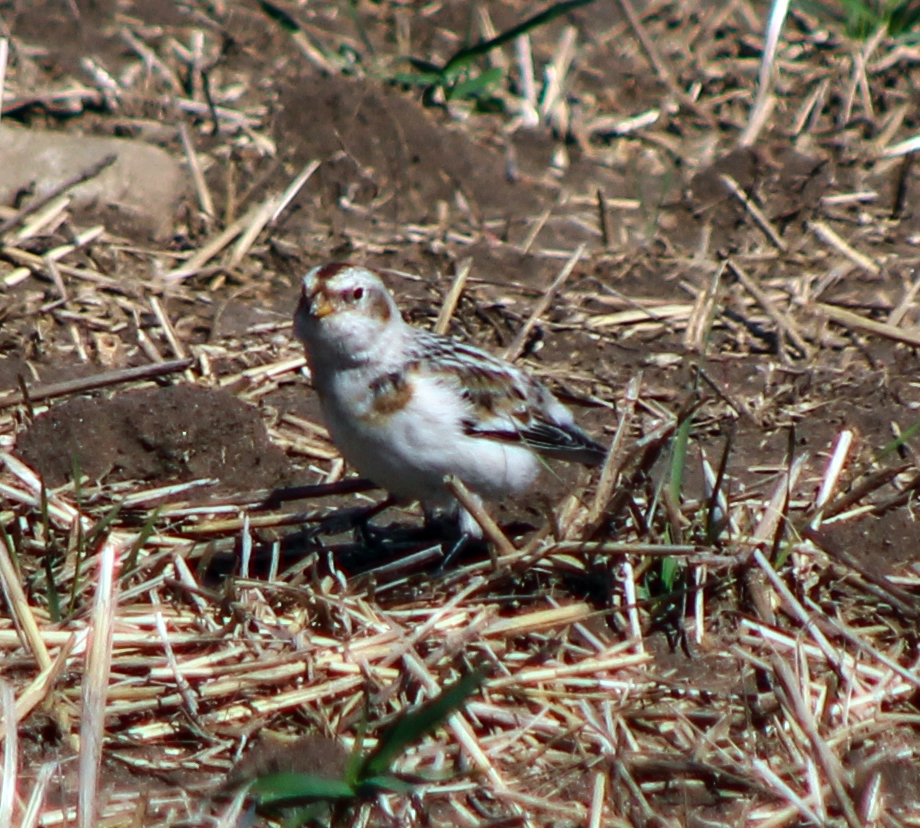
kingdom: Animalia
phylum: Chordata
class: Aves
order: Passeriformes
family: Calcariidae
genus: Plectrophenax
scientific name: Plectrophenax nivalis
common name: Snow bunting
